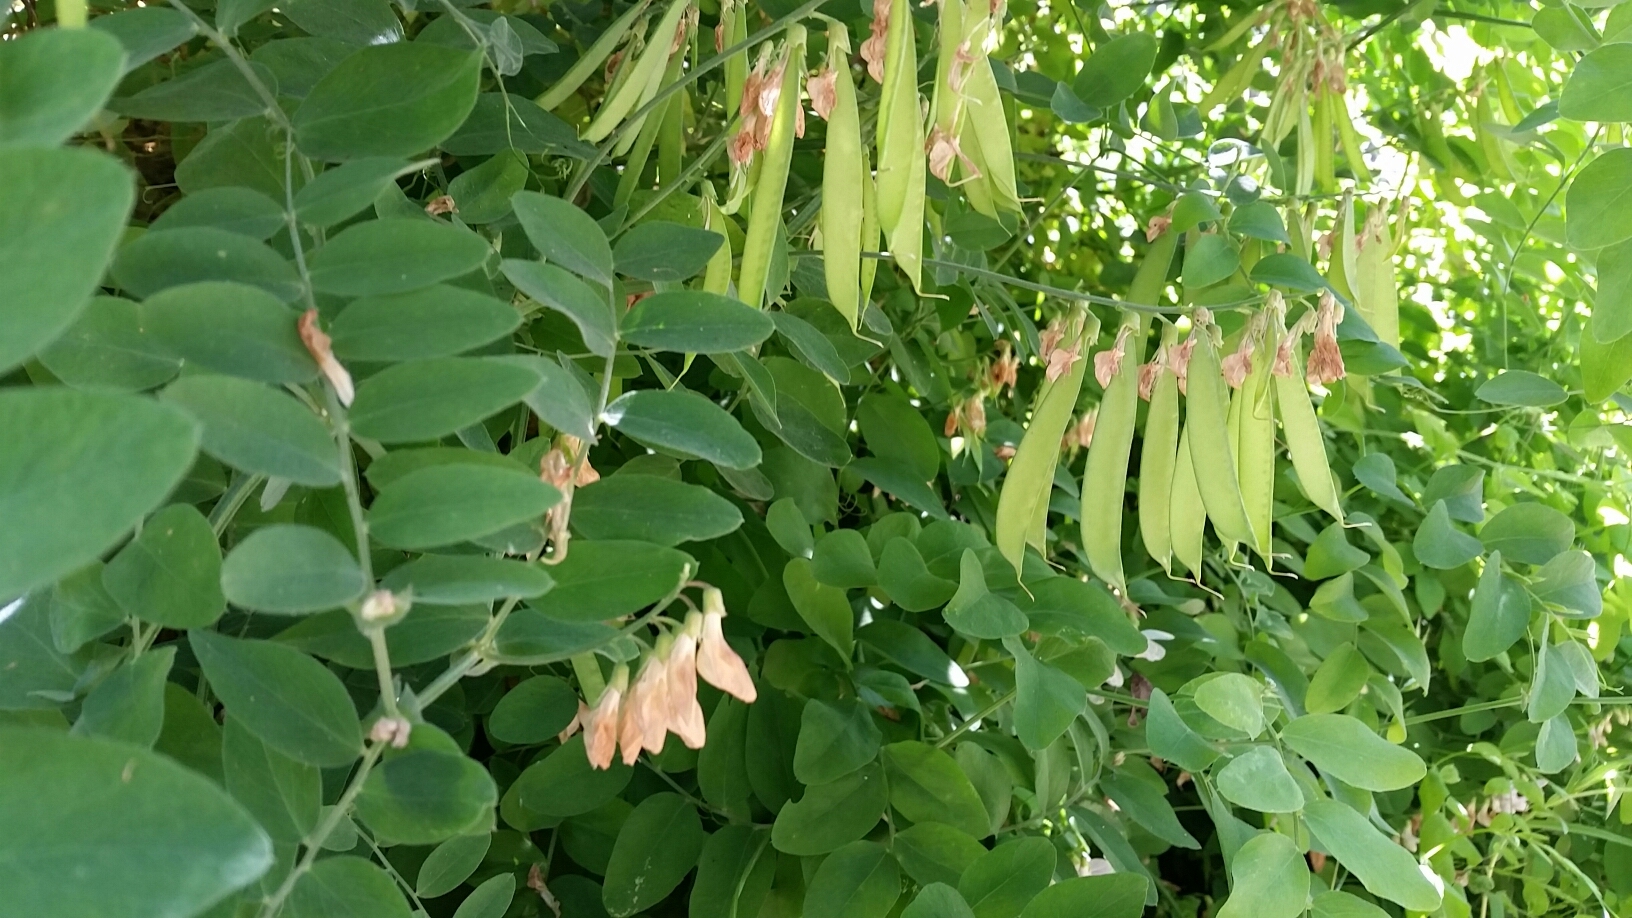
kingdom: Plantae
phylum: Tracheophyta
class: Magnoliopsida
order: Fabales
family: Fabaceae
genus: Lathyrus
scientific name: Lathyrus vestitus
